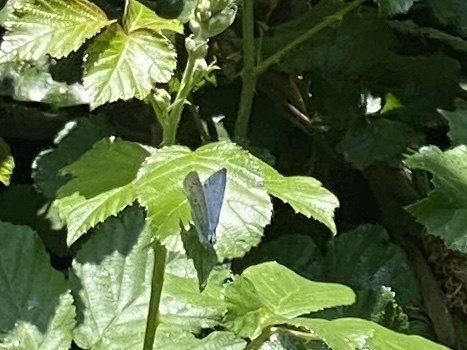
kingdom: Animalia
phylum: Arthropoda
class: Insecta
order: Lepidoptera
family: Nymphalidae
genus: Maniola
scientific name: Maniola jurtina
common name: Meadow brown
